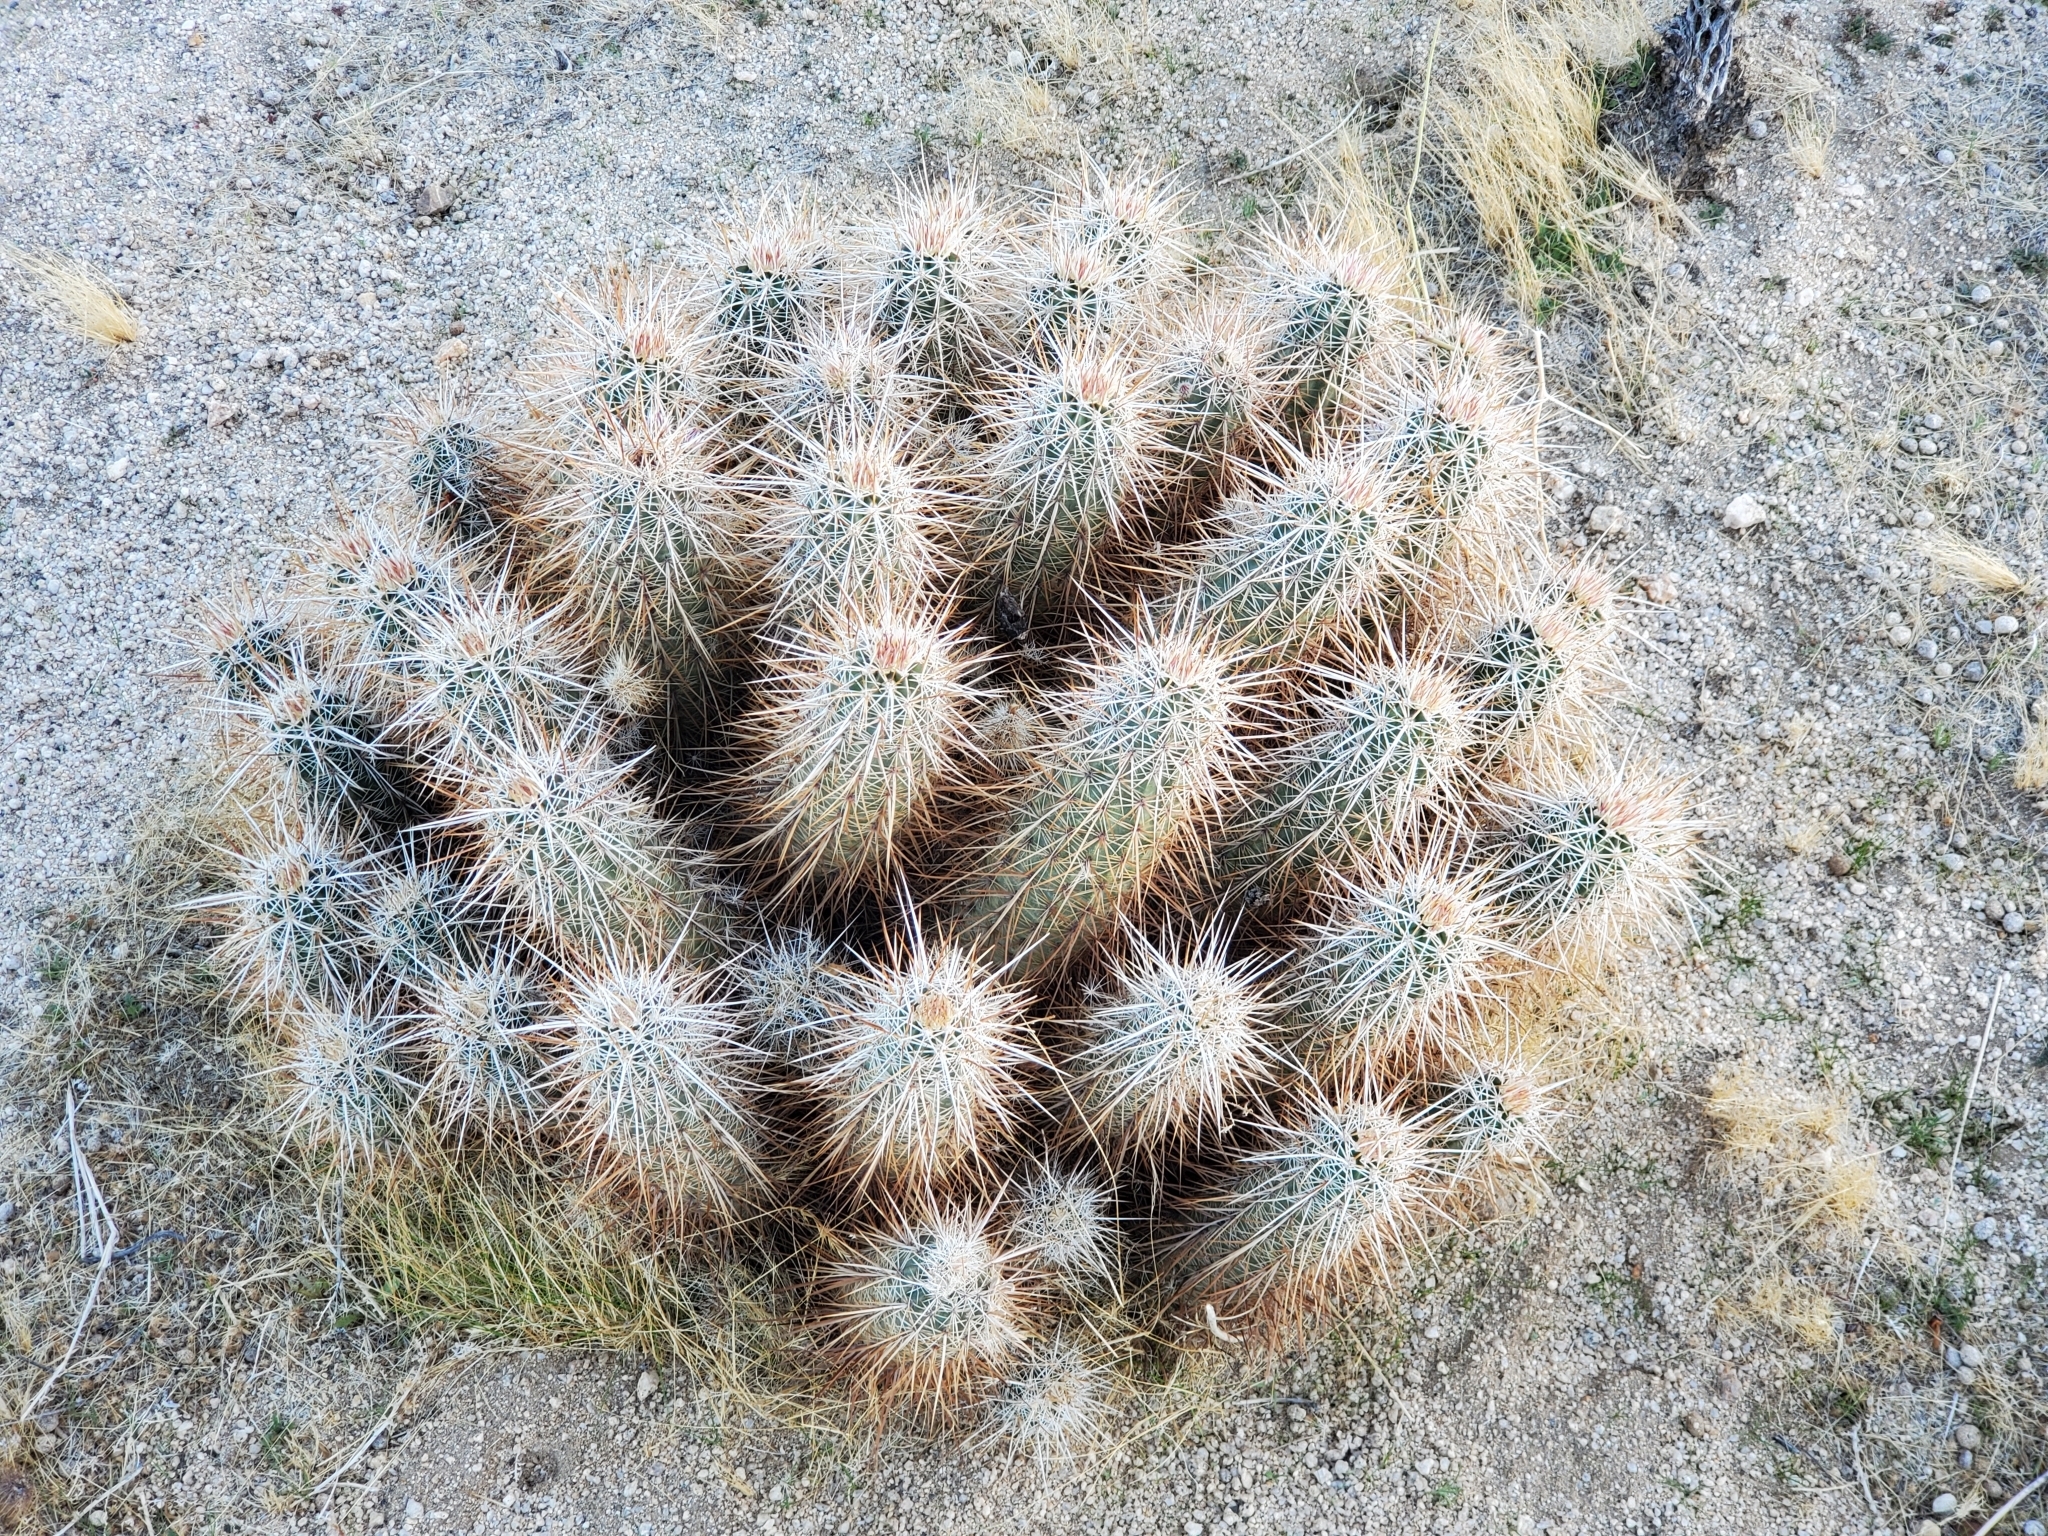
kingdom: Plantae
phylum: Tracheophyta
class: Magnoliopsida
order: Caryophyllales
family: Cactaceae
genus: Echinocereus
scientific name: Echinocereus engelmannii
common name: Engelmann's hedgehog cactus
